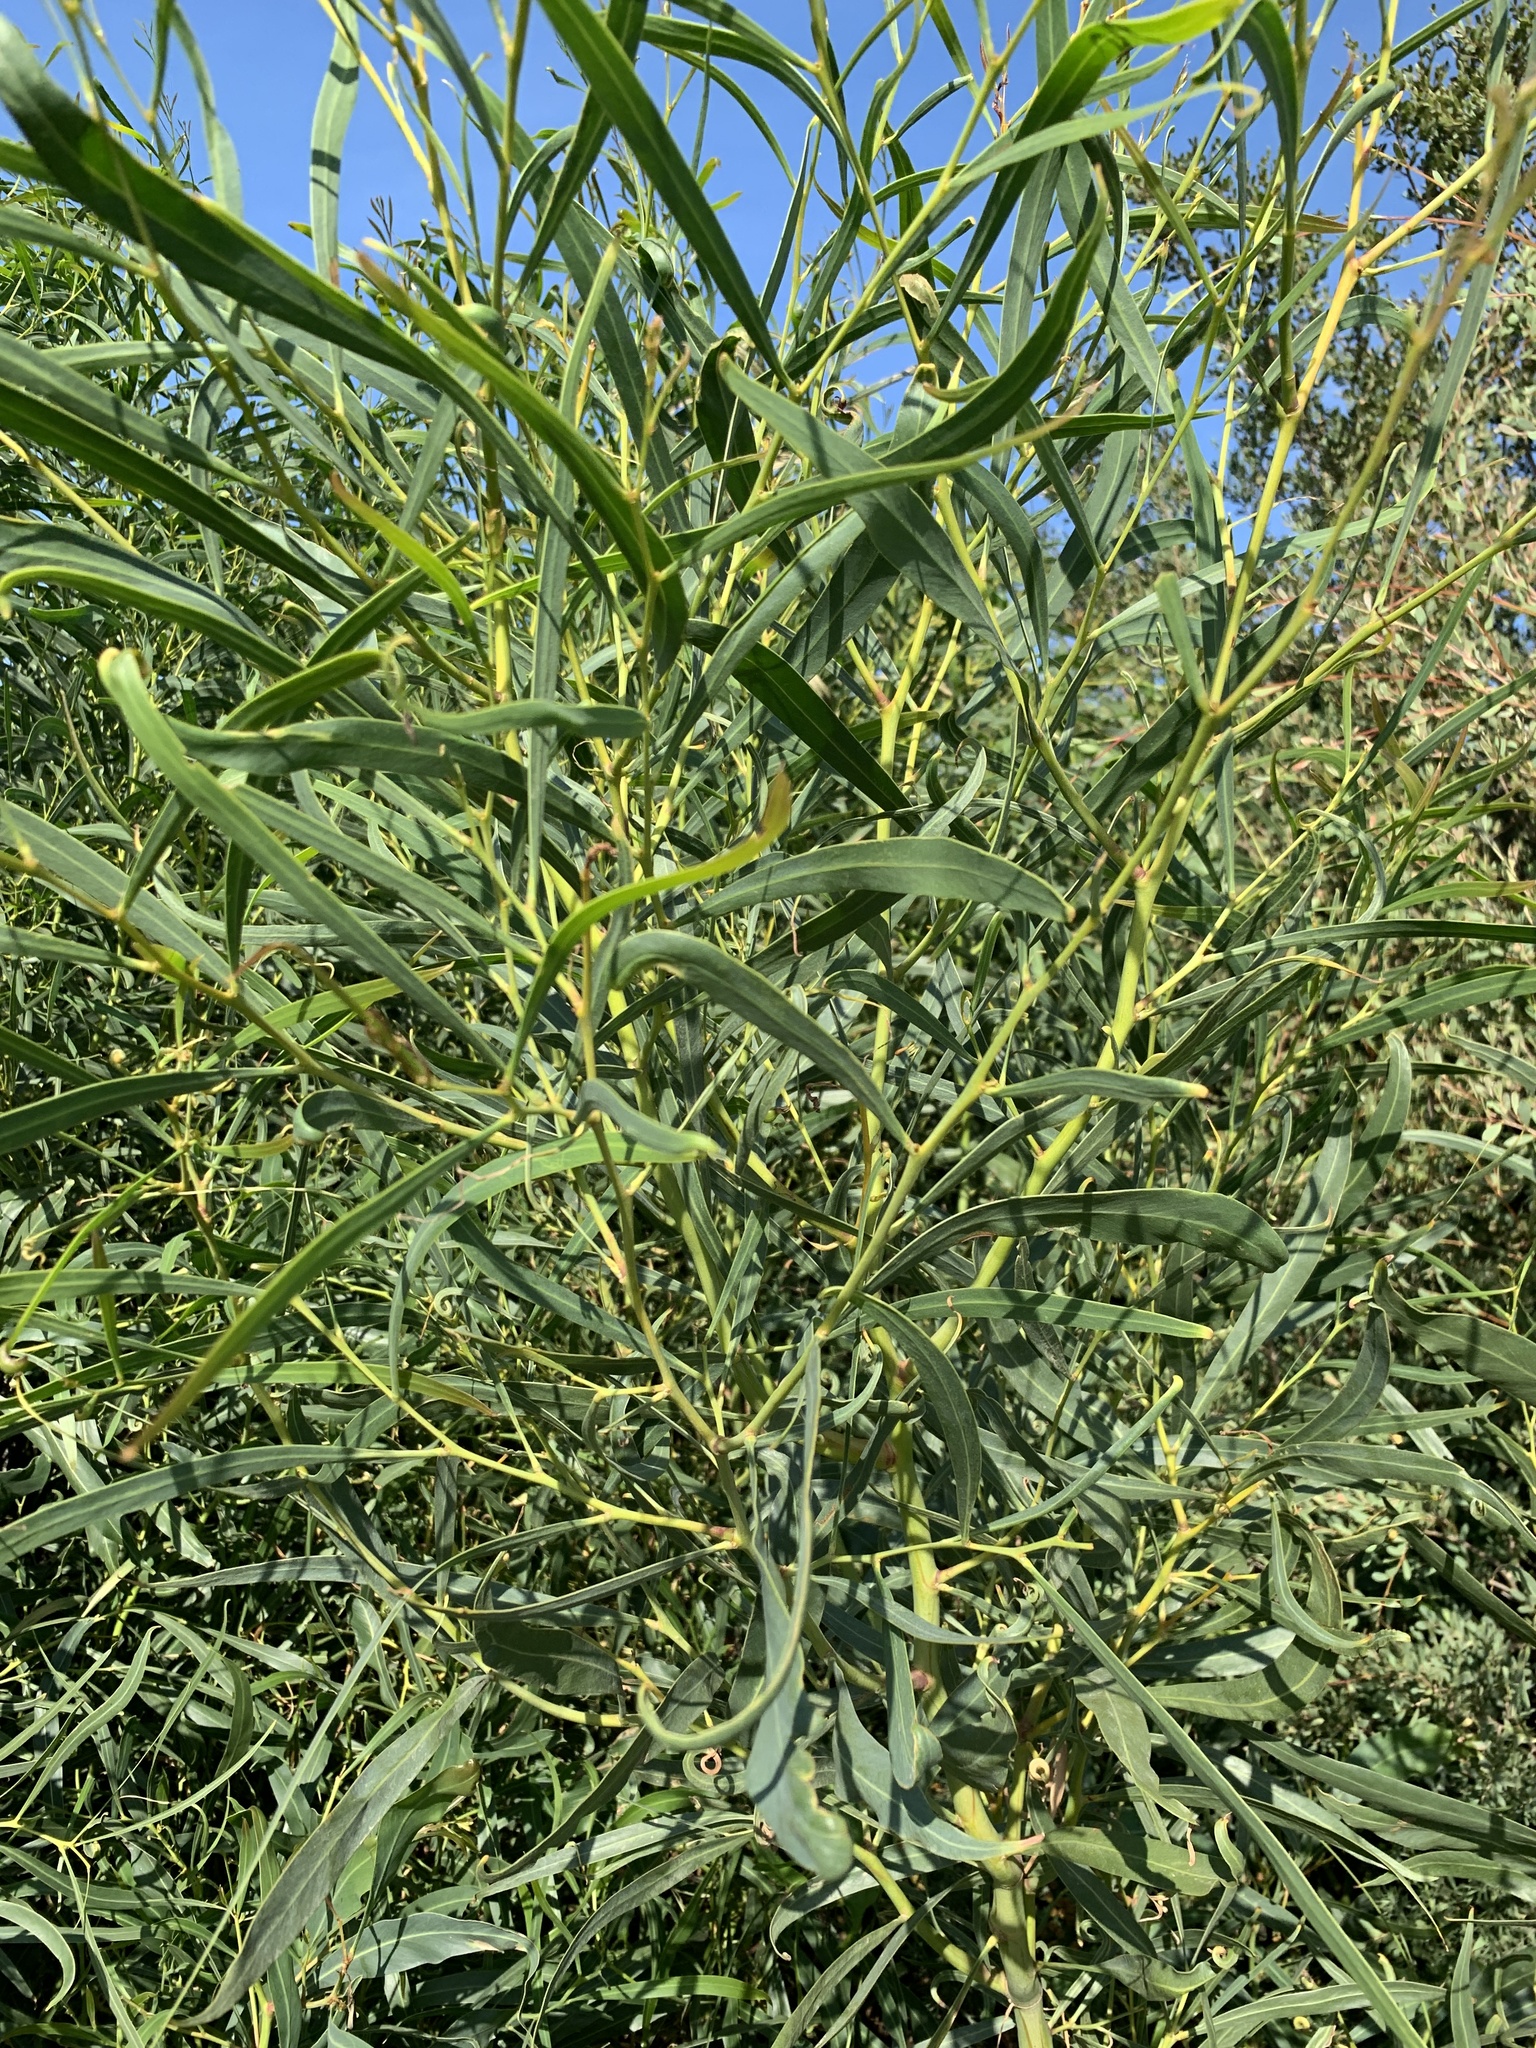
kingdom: Plantae
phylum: Tracheophyta
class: Magnoliopsida
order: Fabales
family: Fabaceae
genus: Acacia
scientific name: Acacia saligna
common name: Orange wattle
